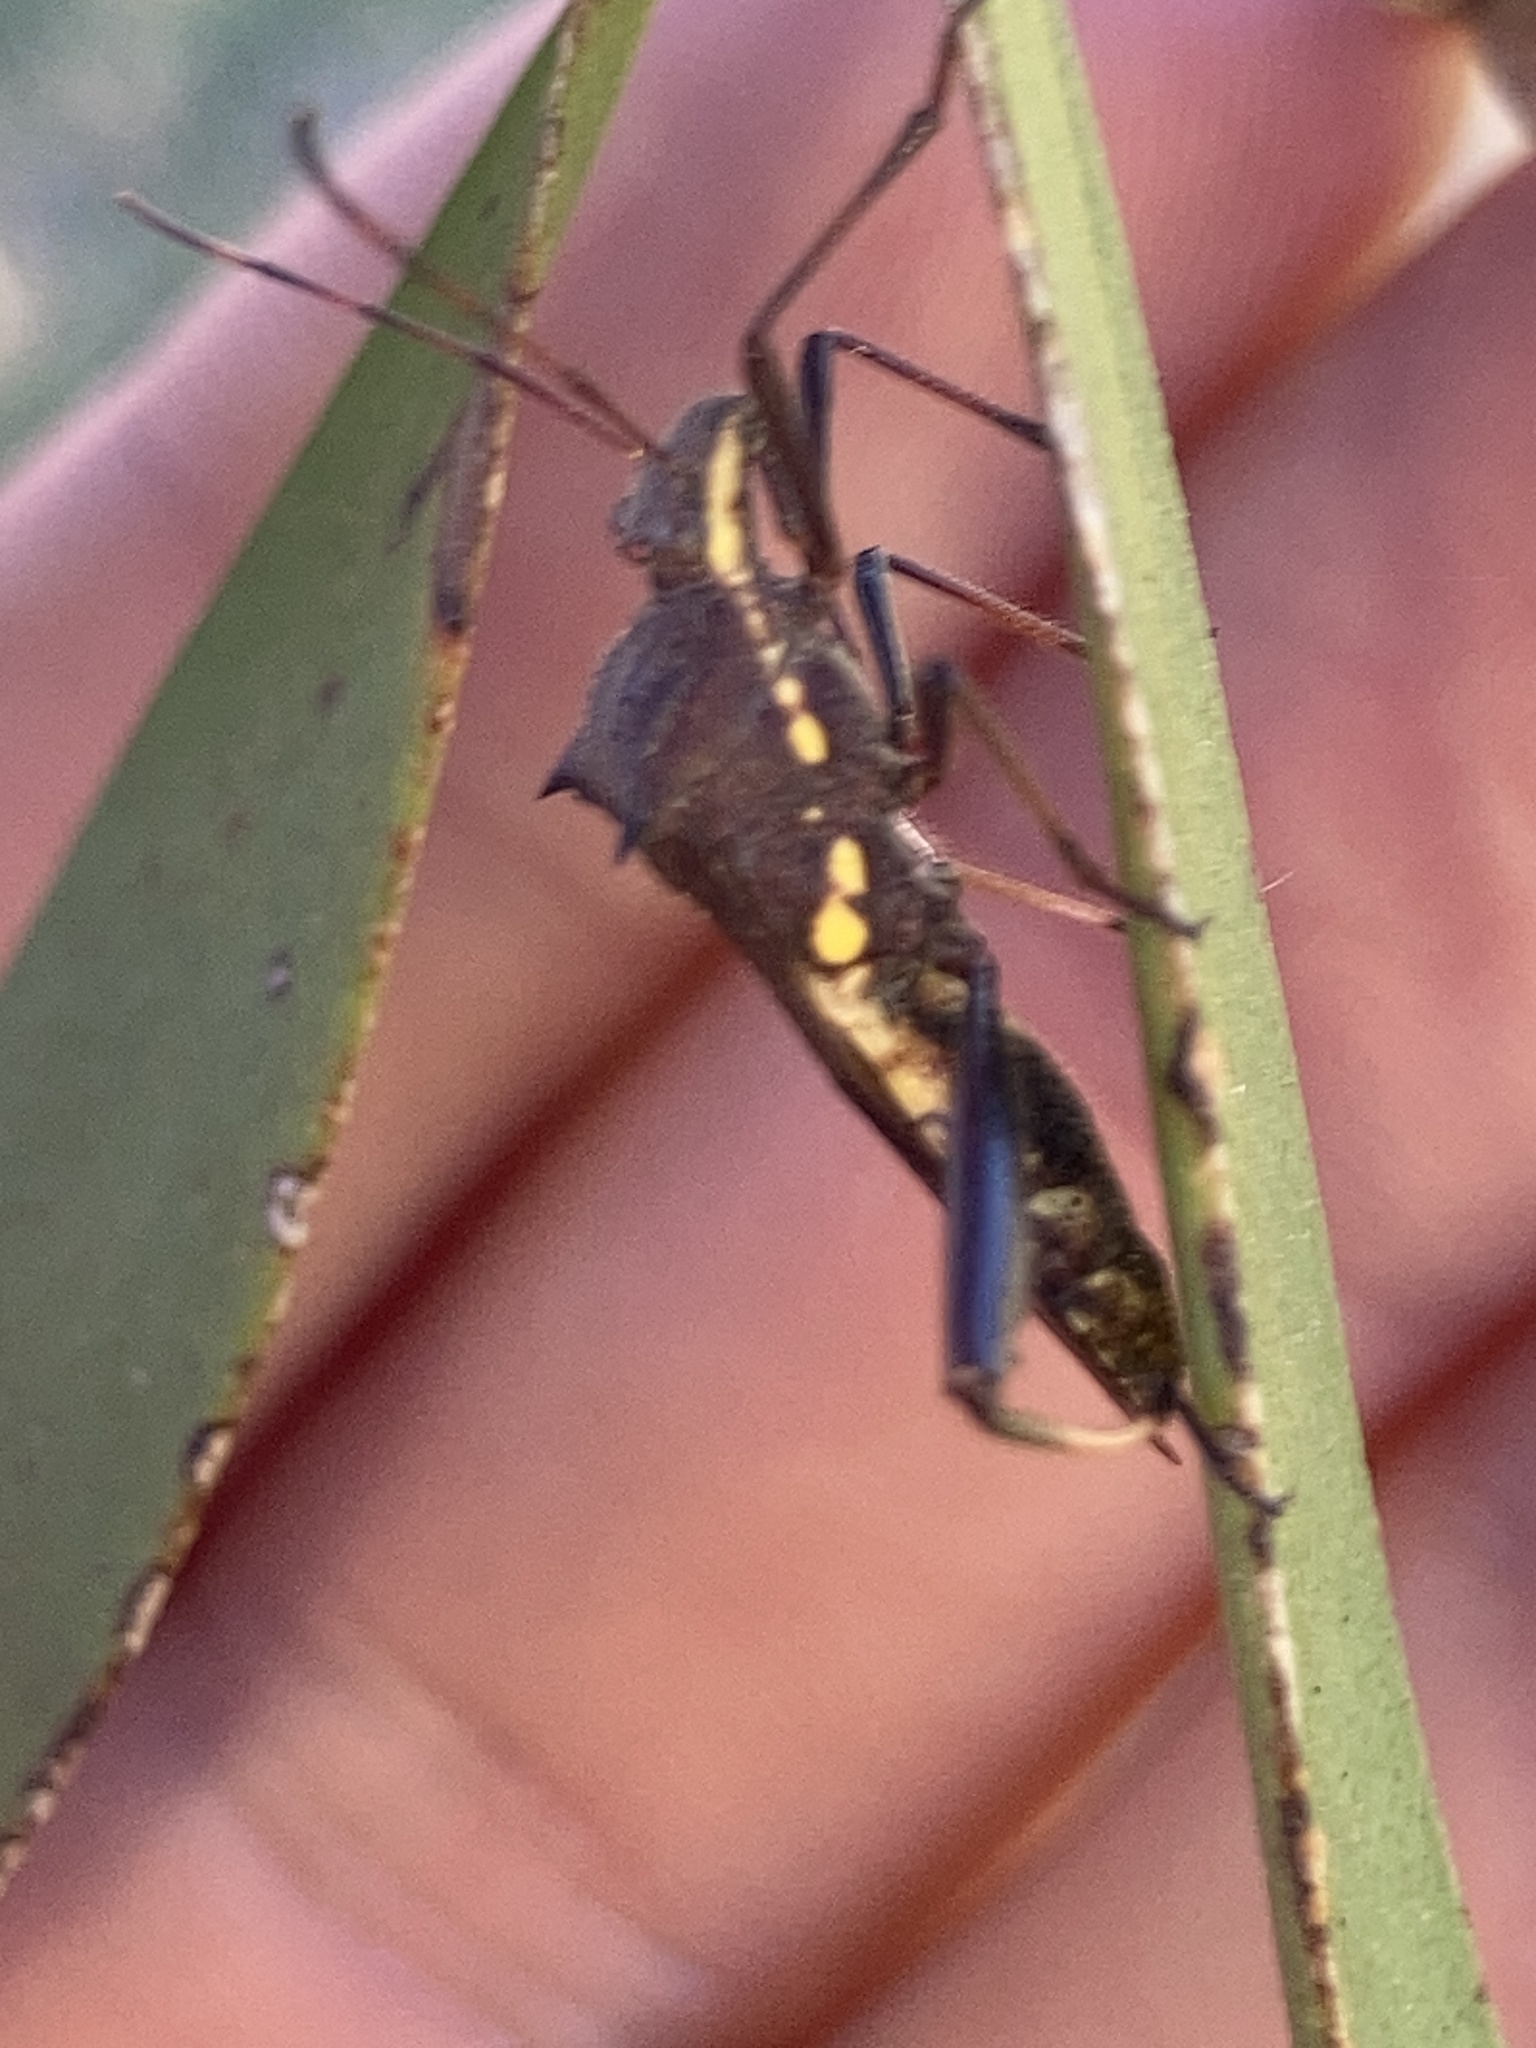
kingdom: Animalia
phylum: Arthropoda
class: Insecta
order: Hemiptera
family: Alydidae
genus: Riptortus
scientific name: Riptortus serripes
